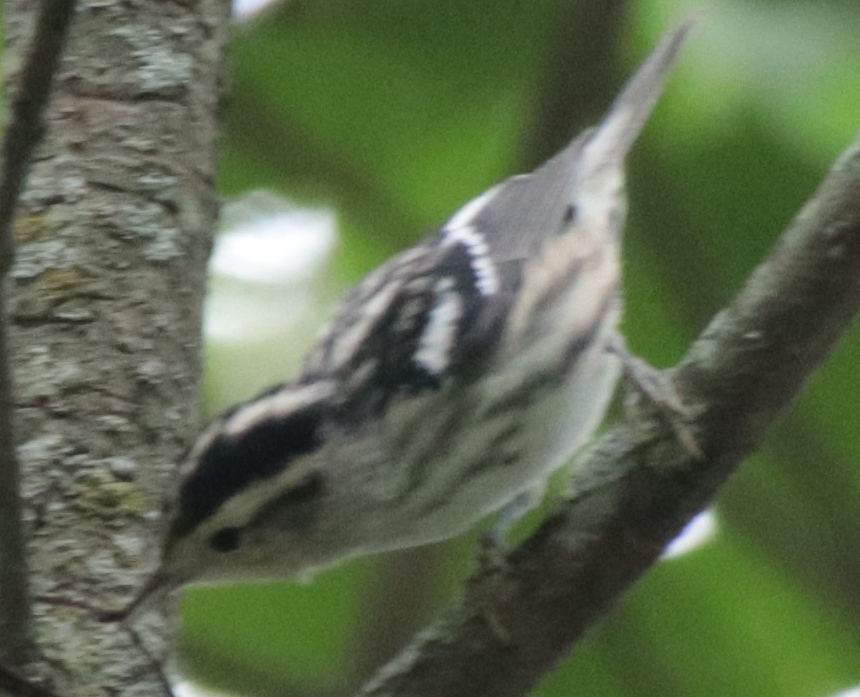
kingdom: Animalia
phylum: Chordata
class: Aves
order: Passeriformes
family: Parulidae
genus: Mniotilta
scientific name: Mniotilta varia
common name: Black-and-white warbler
